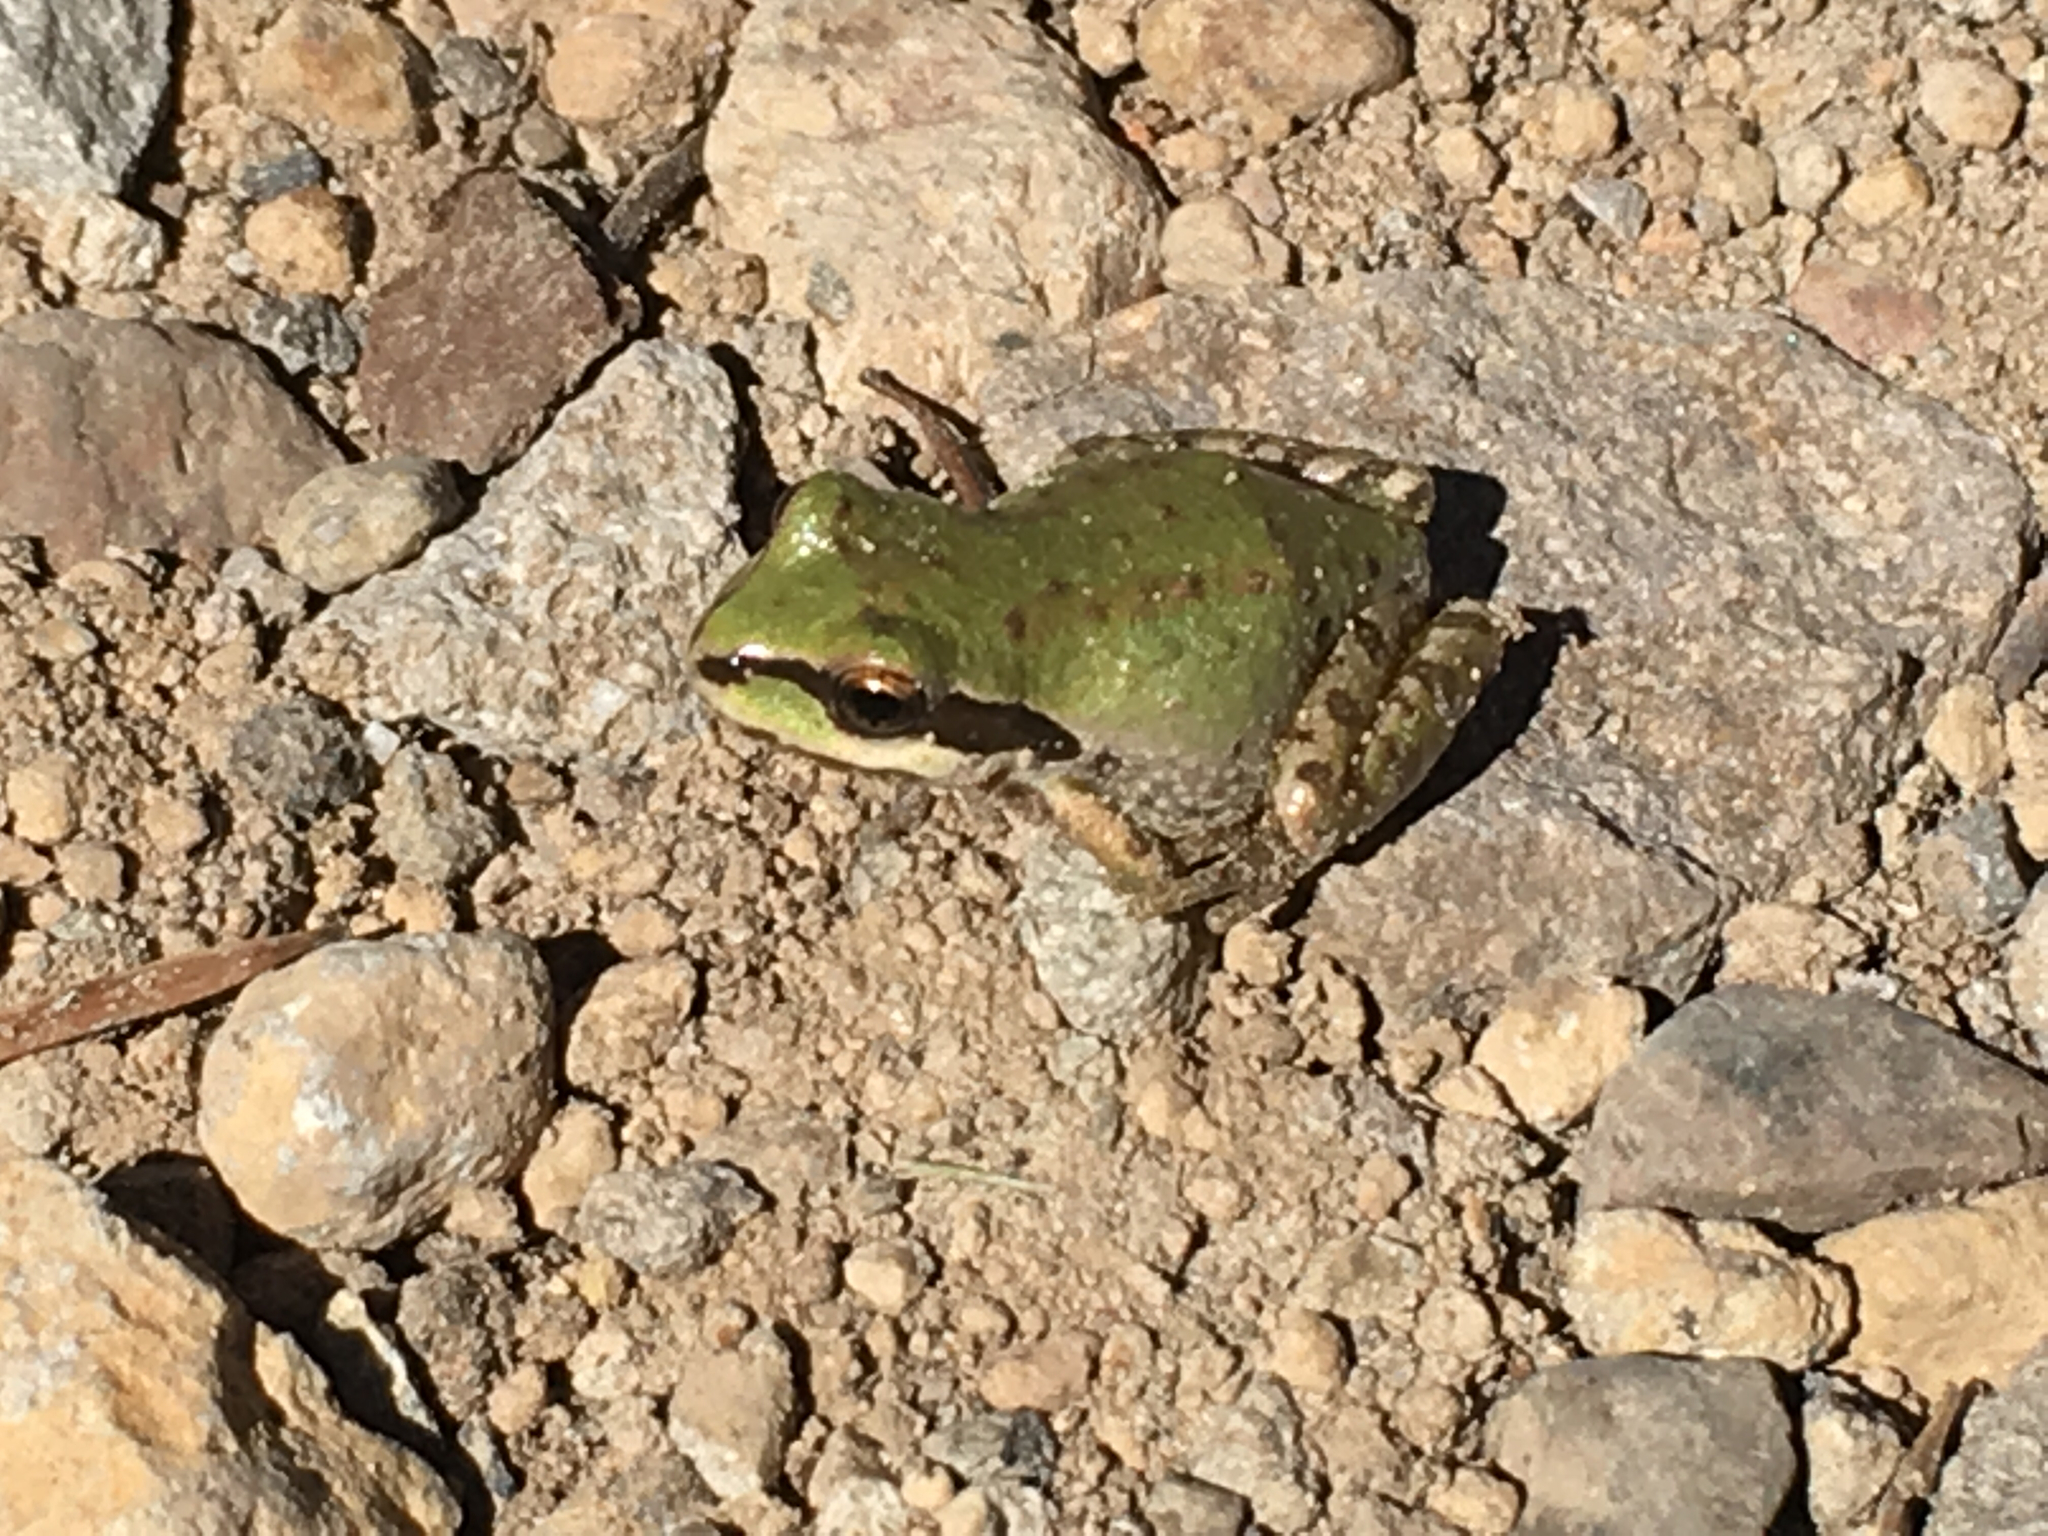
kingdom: Animalia
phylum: Chordata
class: Amphibia
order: Anura
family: Hylidae
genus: Pseudacris
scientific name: Pseudacris regilla
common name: Pacific chorus frog
